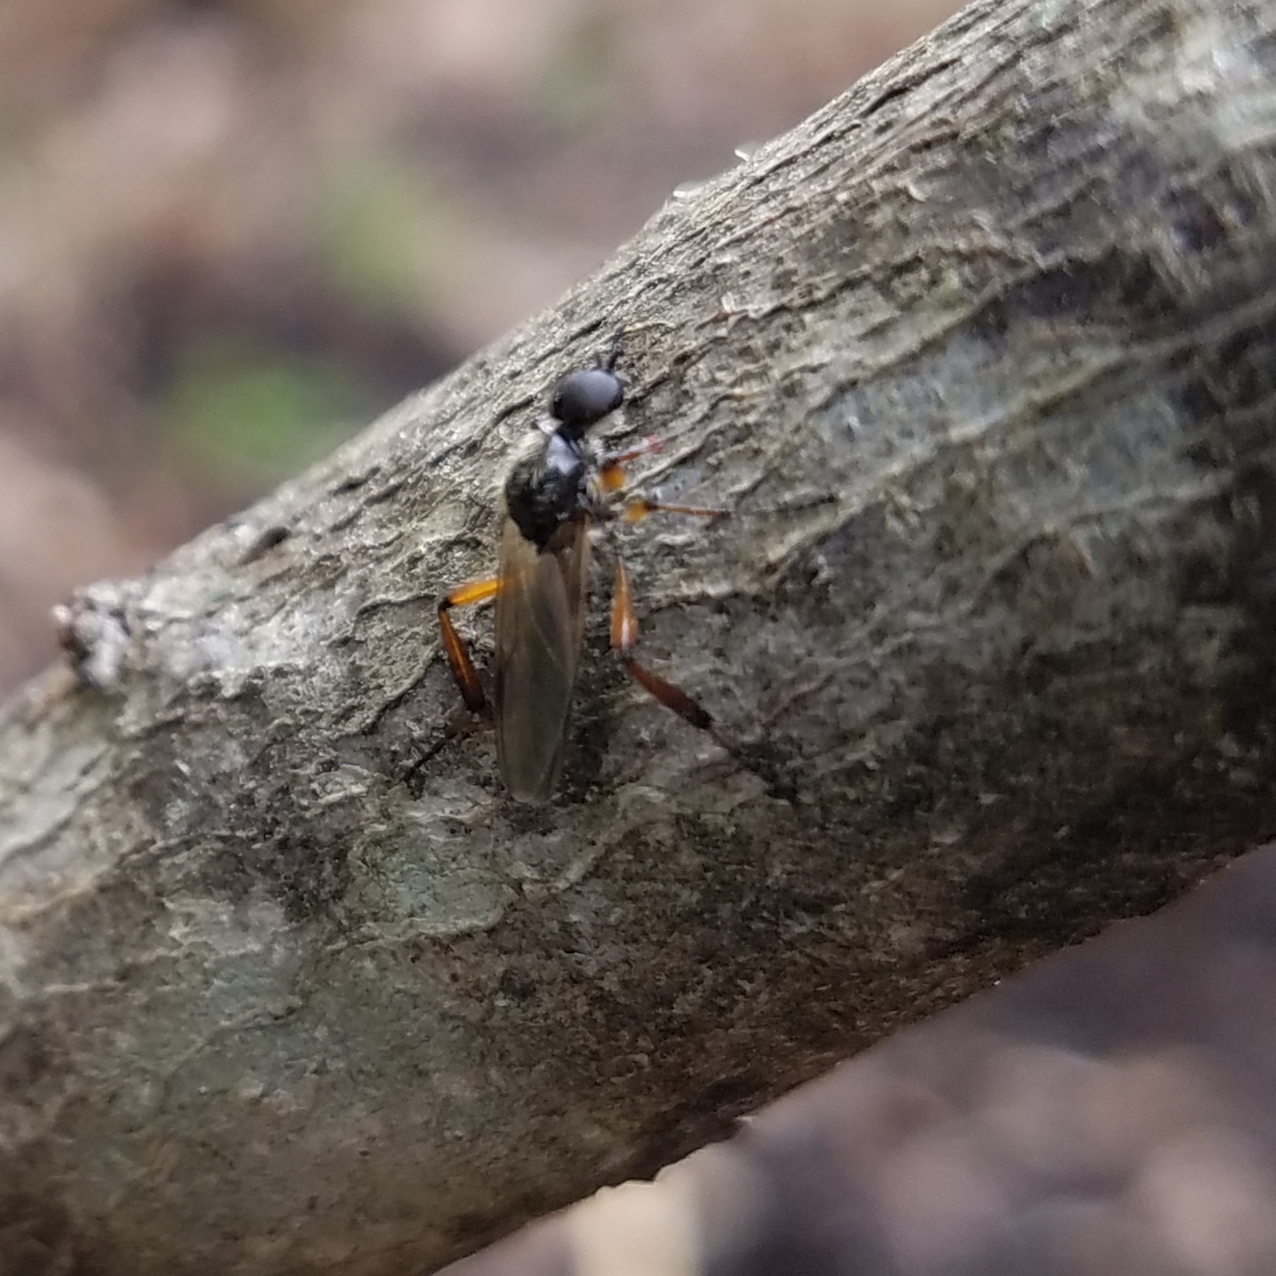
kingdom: Animalia
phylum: Arthropoda
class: Insecta
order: Diptera
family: Bibionidae
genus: Bibio
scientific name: Bibio articulatus
